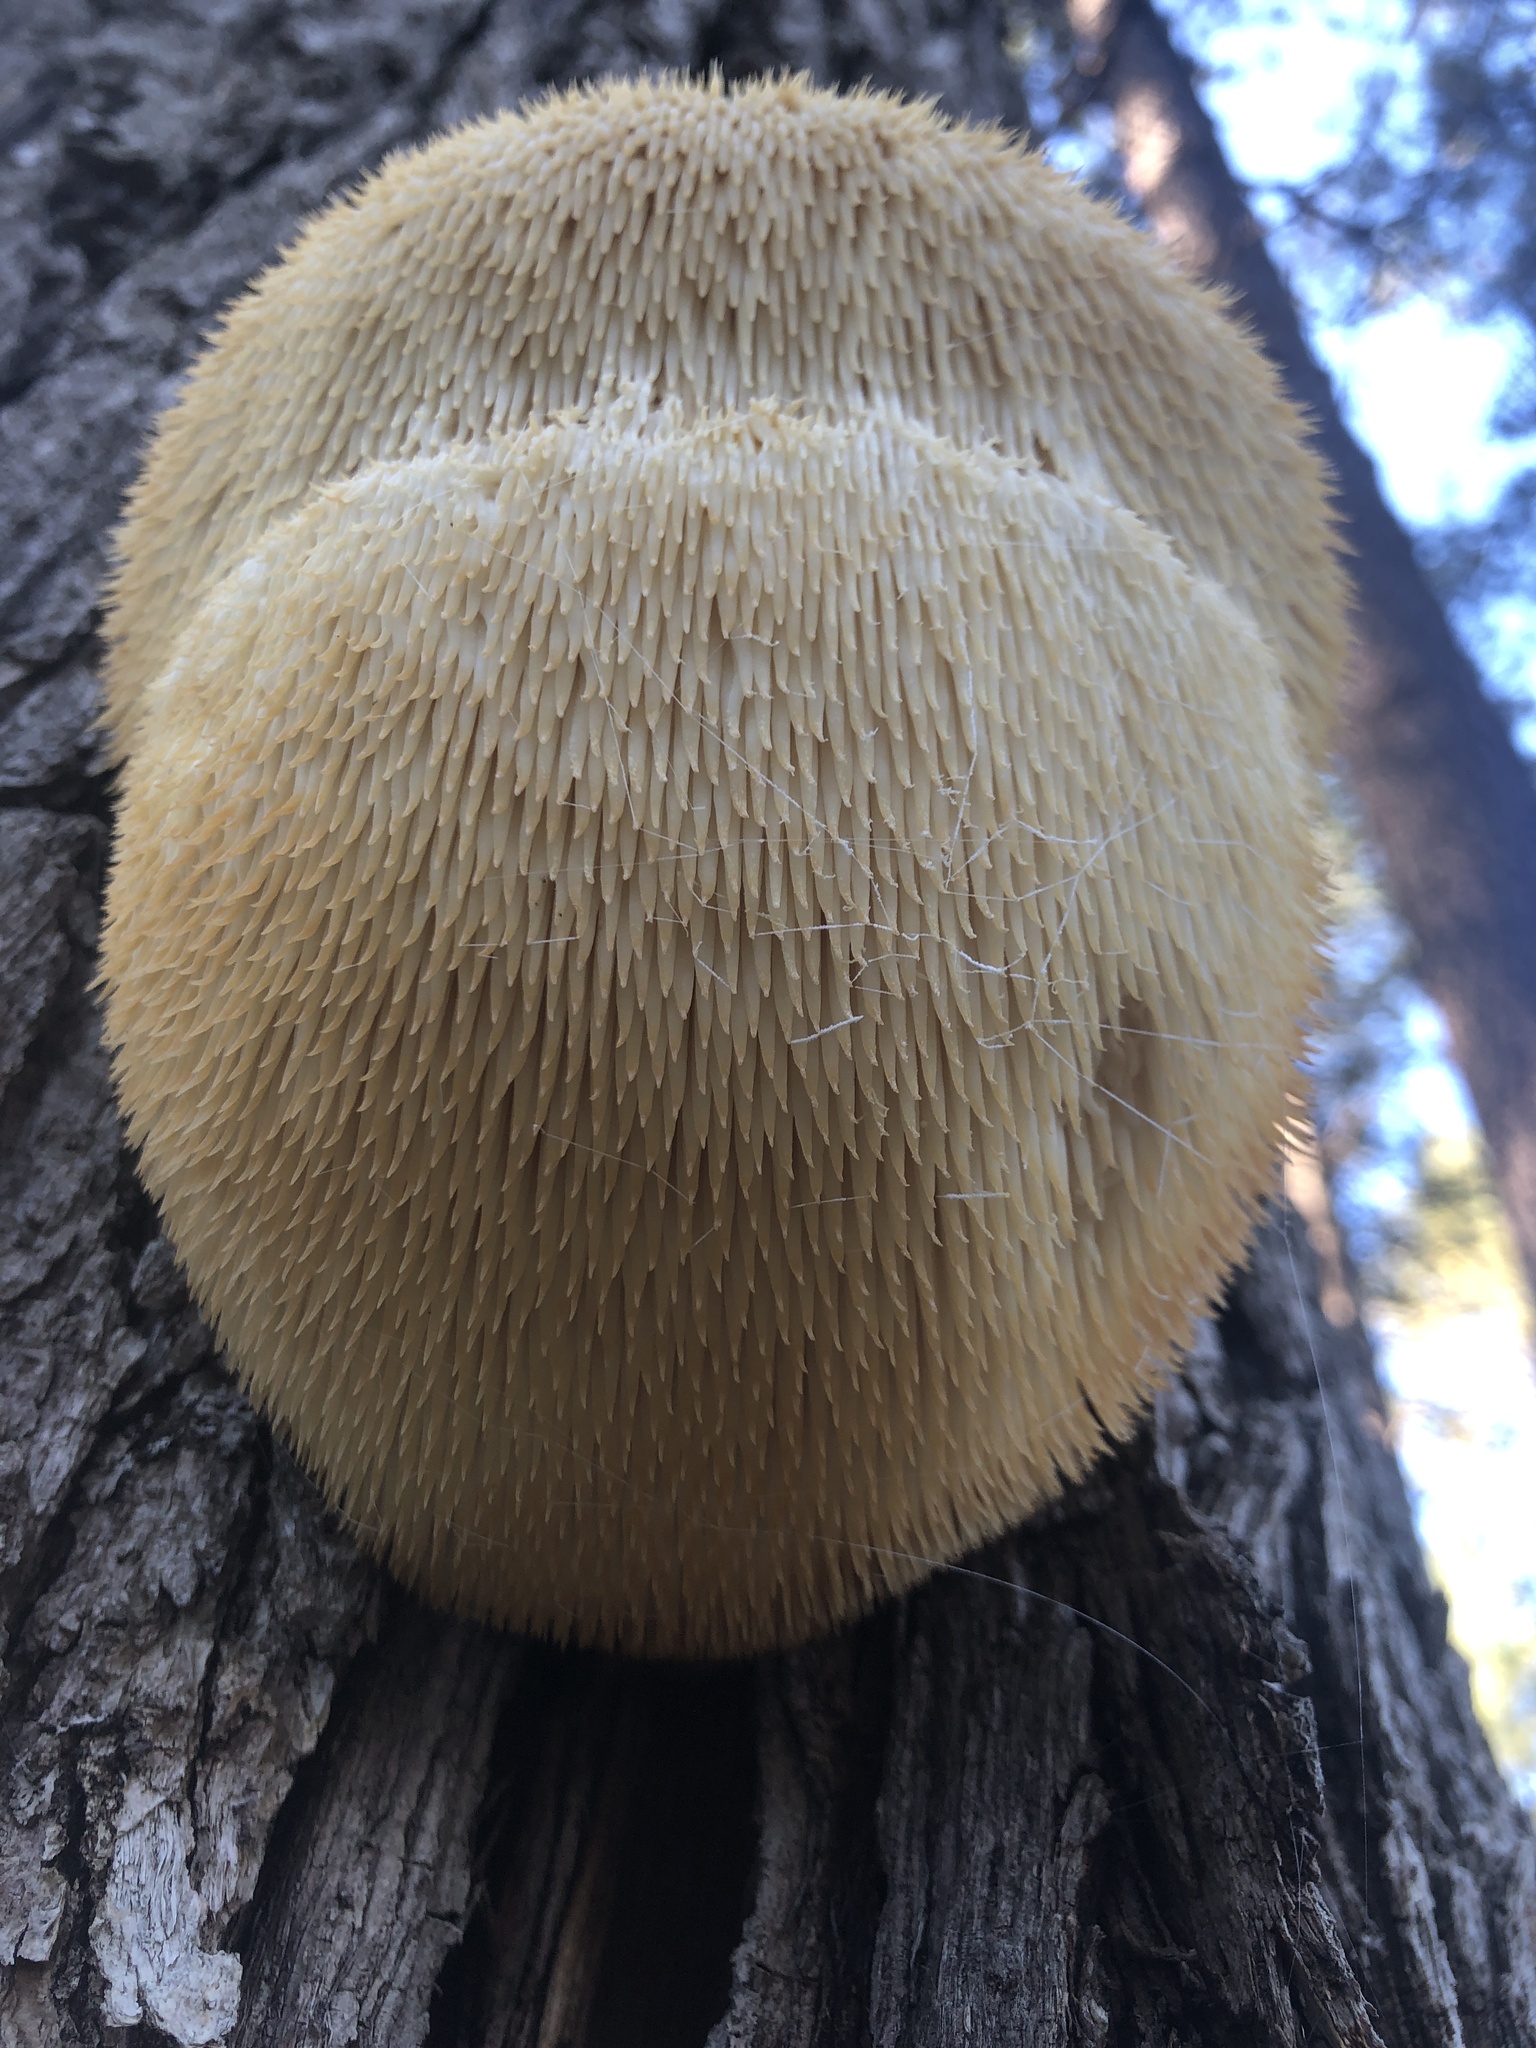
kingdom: Fungi
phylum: Basidiomycota
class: Agaricomycetes
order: Russulales
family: Hericiaceae
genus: Hericium
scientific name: Hericium erinaceus
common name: Bearded tooth
